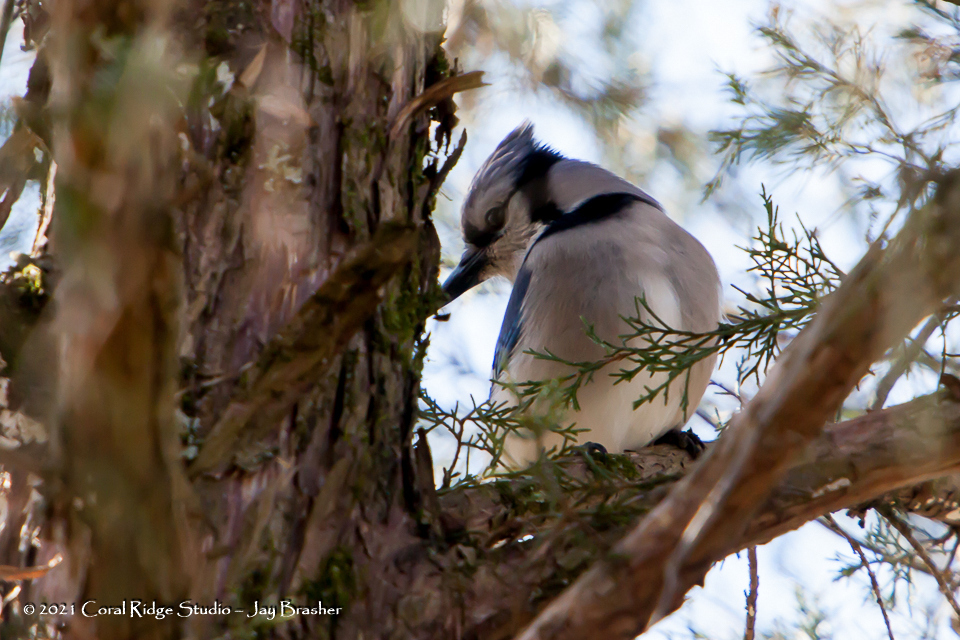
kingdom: Animalia
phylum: Chordata
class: Aves
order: Passeriformes
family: Corvidae
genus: Cyanocitta
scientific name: Cyanocitta cristata
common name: Blue jay
